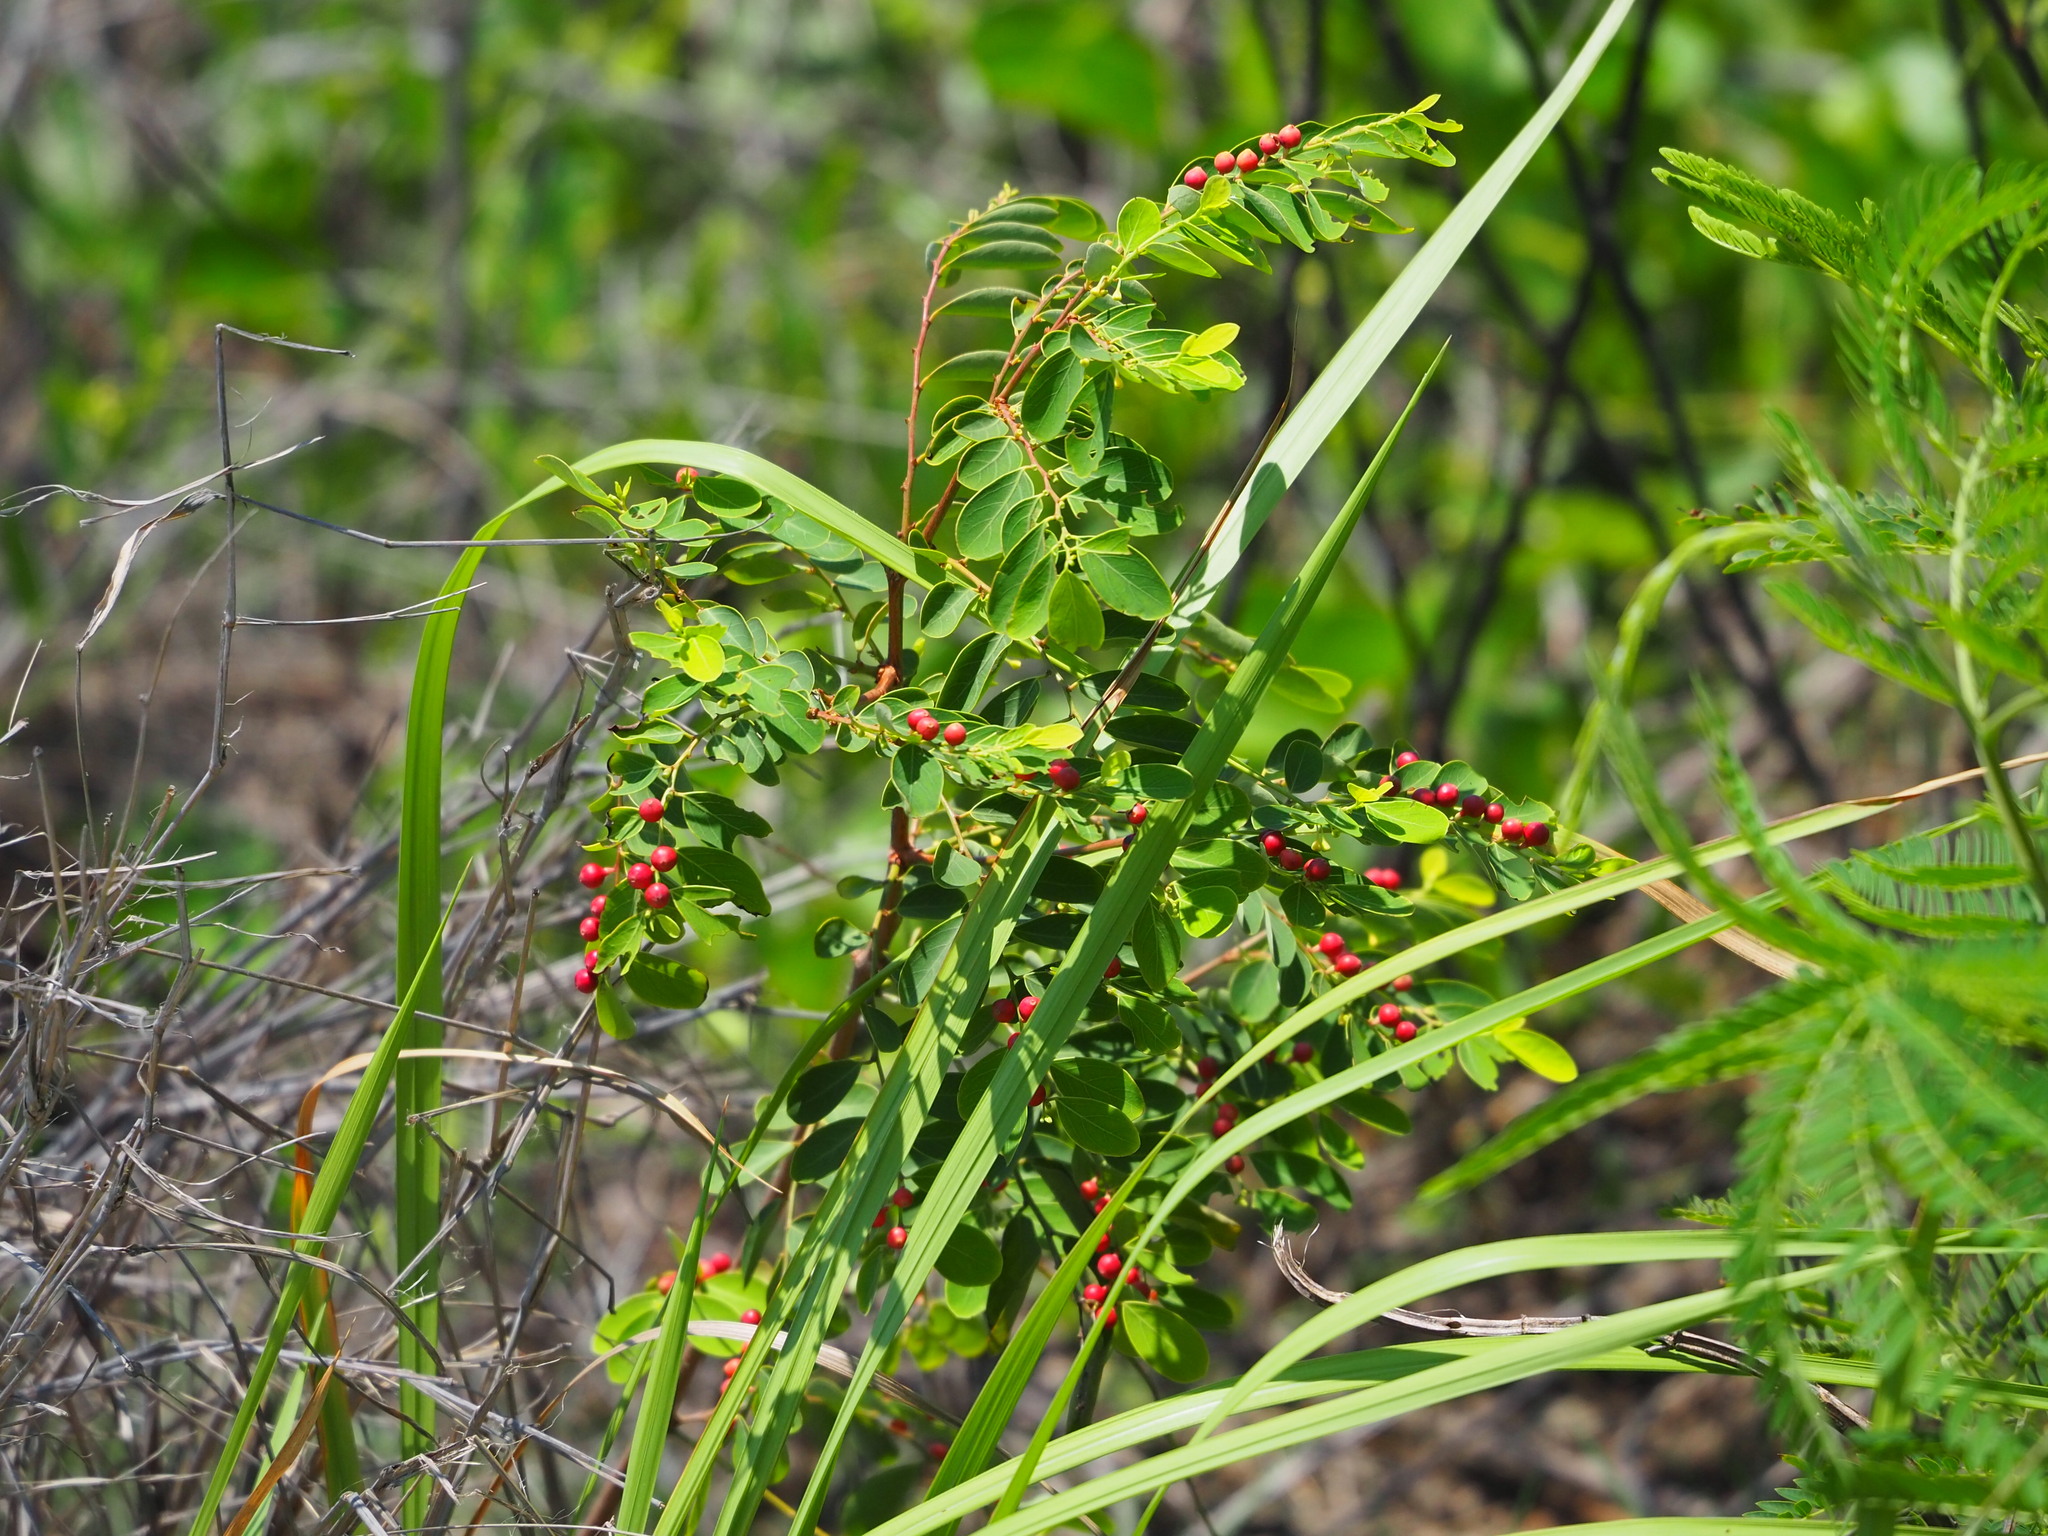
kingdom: Plantae
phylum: Tracheophyta
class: Magnoliopsida
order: Malpighiales
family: Phyllanthaceae
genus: Breynia
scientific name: Breynia vitis-idaea
